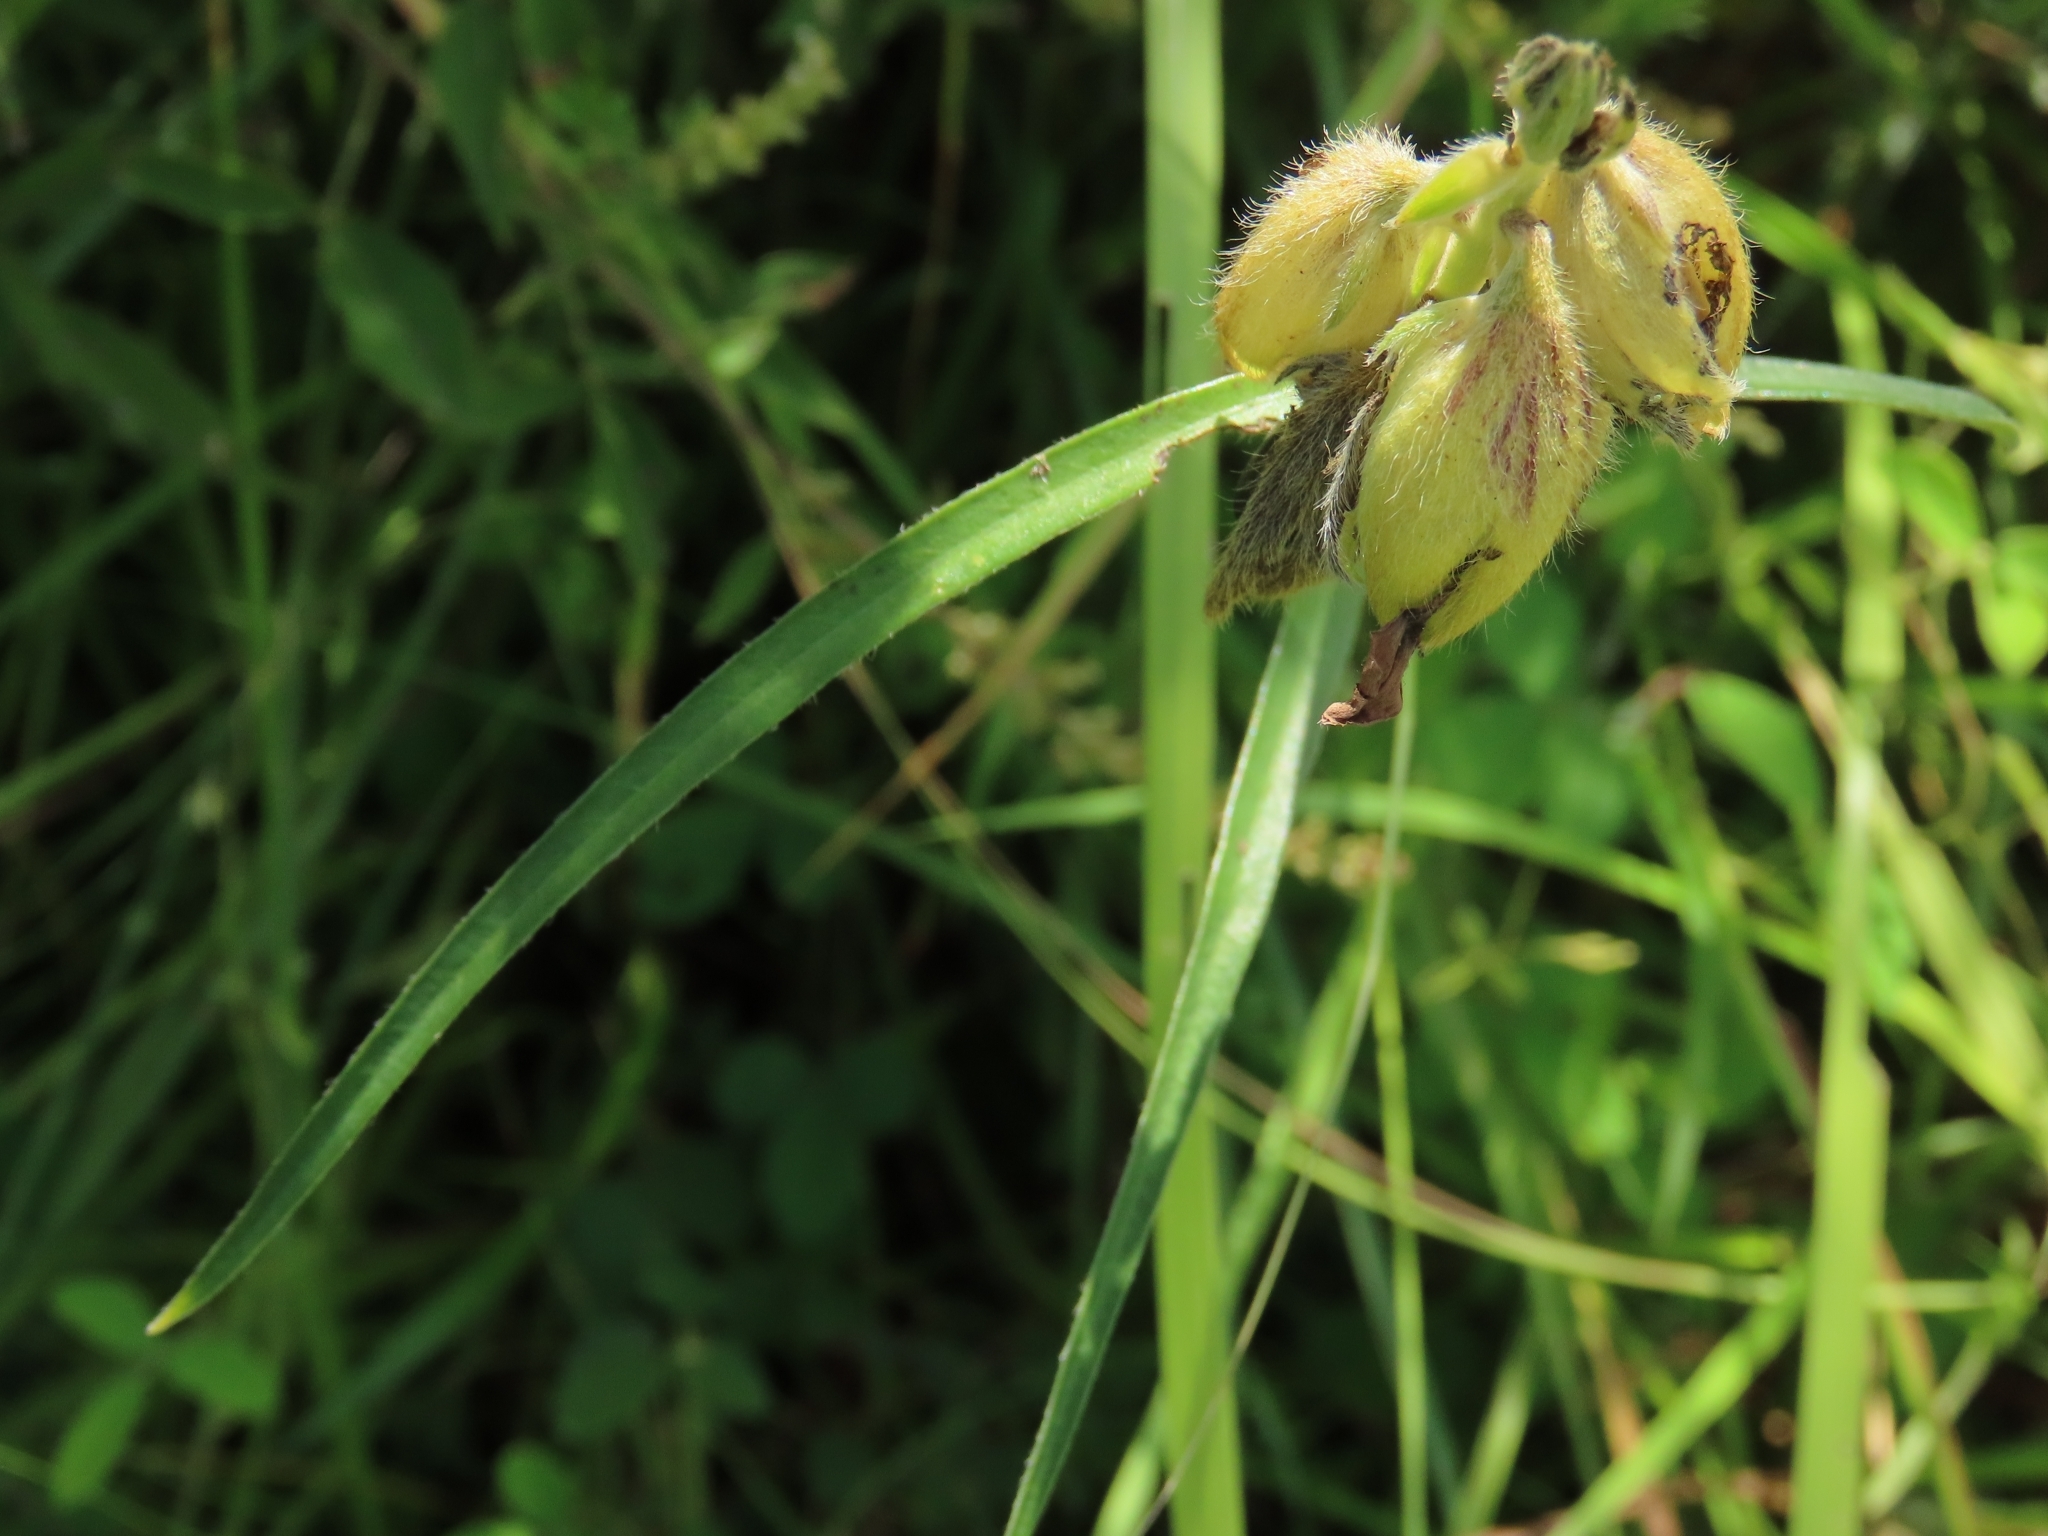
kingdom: Plantae
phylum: Tracheophyta
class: Magnoliopsida
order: Fabales
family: Fabaceae
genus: Crotalaria
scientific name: Crotalaria sessiliflora
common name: Rattlebox
